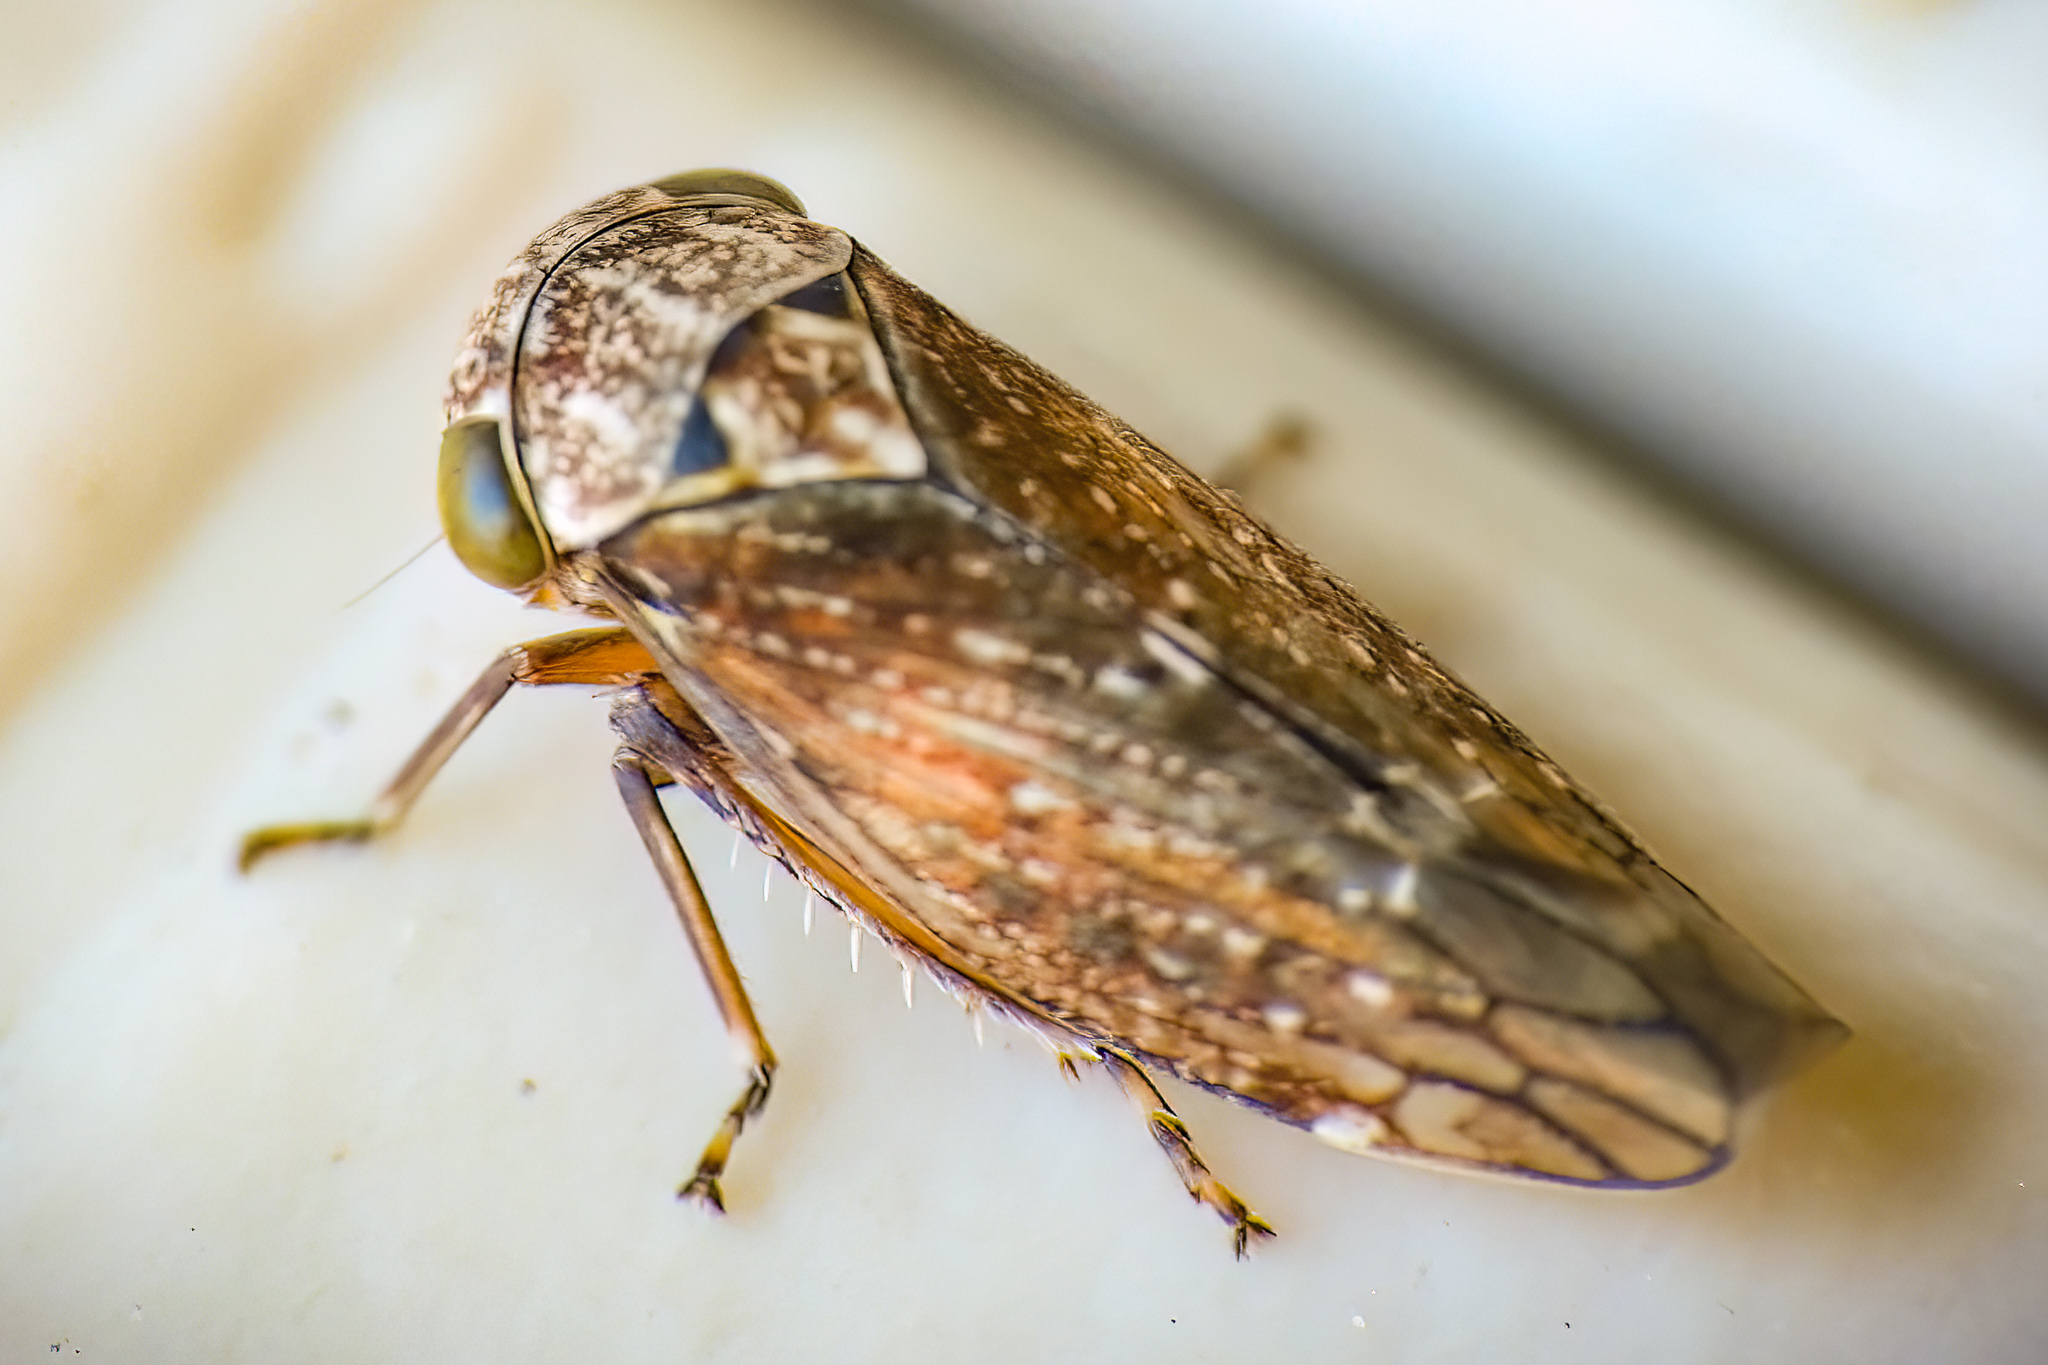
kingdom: Animalia
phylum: Arthropoda
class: Insecta
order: Hemiptera
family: Cicadellidae
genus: Acericerus
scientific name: Acericerus ribauti
